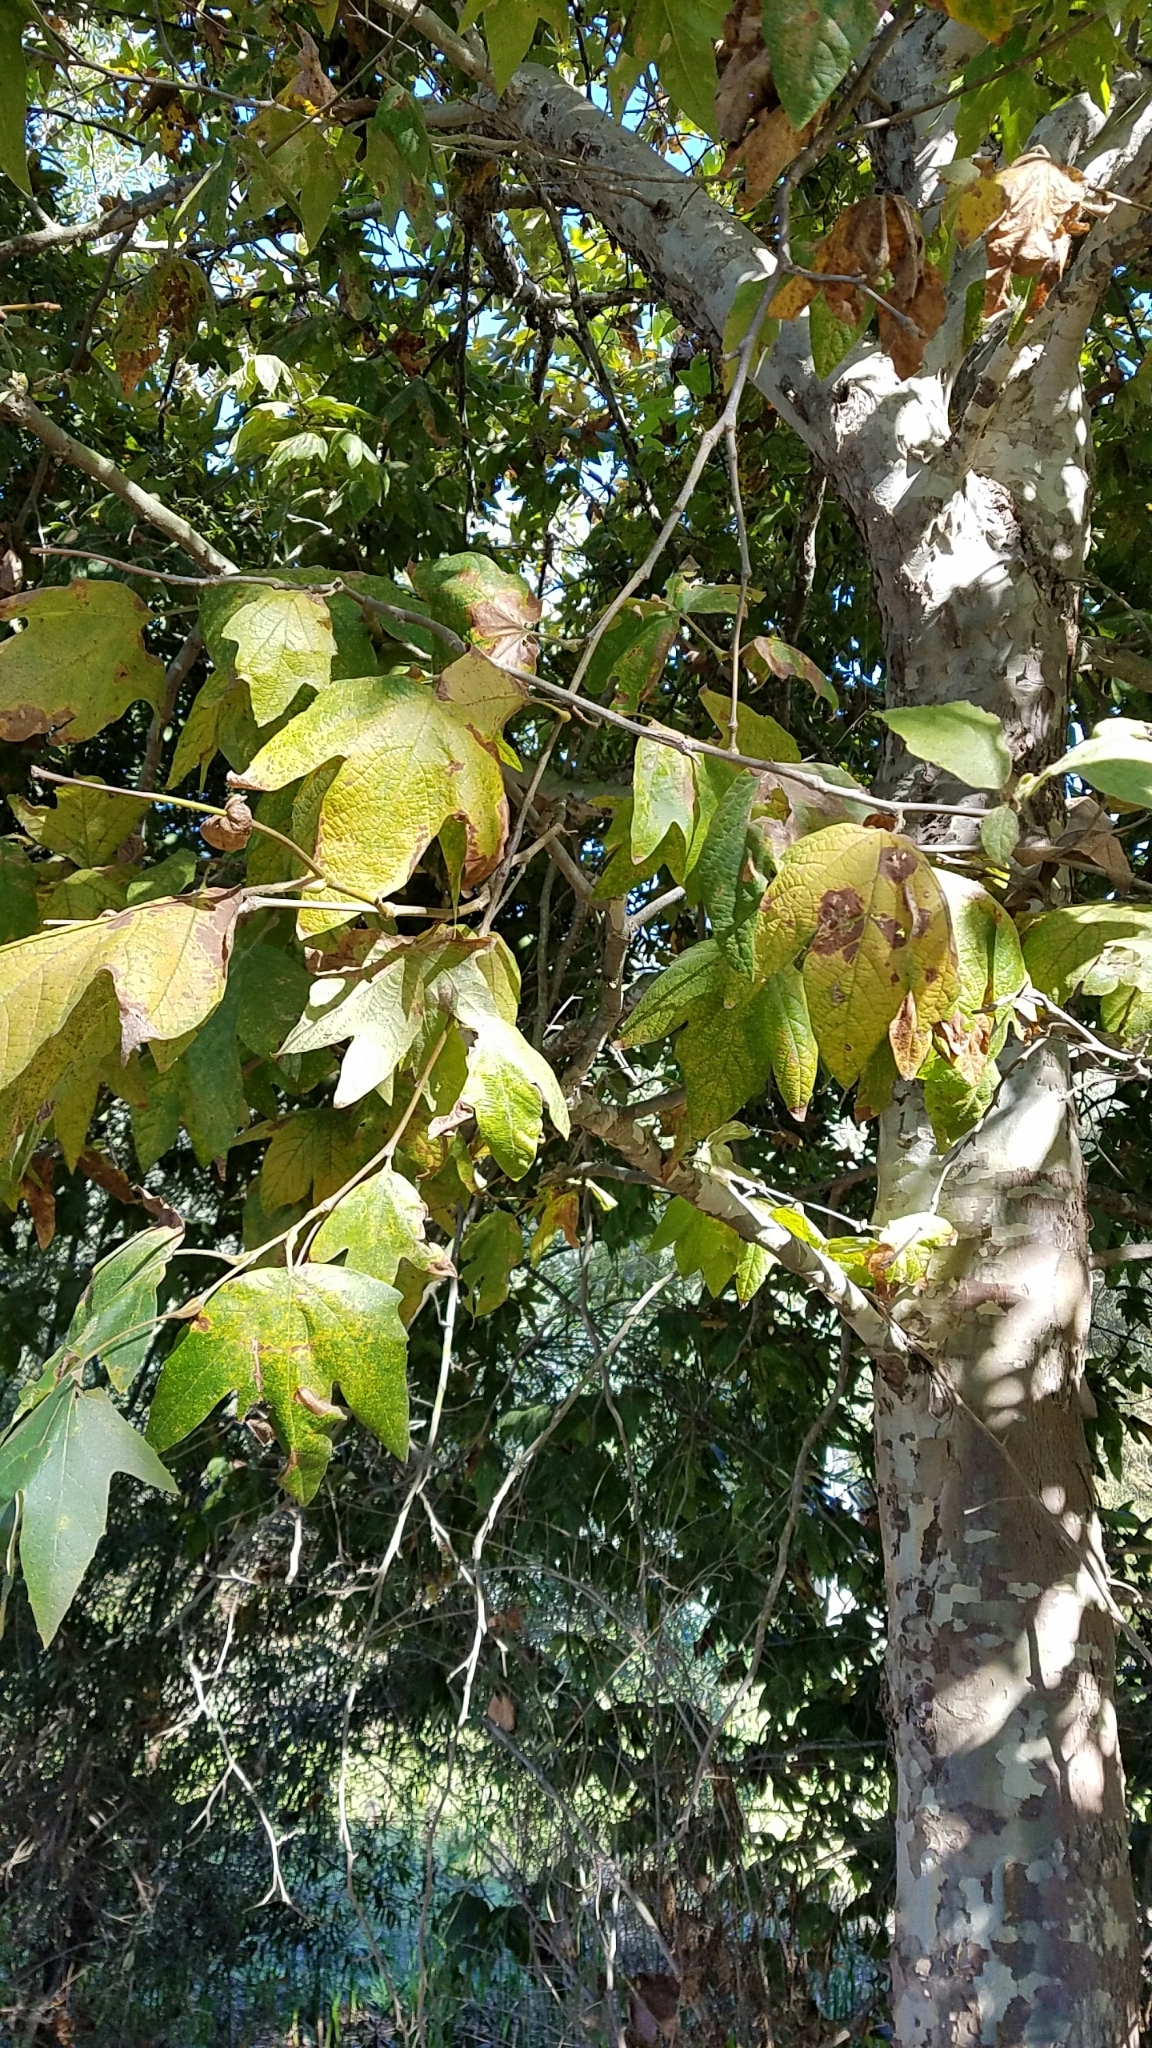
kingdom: Plantae
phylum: Tracheophyta
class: Magnoliopsida
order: Proteales
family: Platanaceae
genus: Platanus
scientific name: Platanus racemosa
